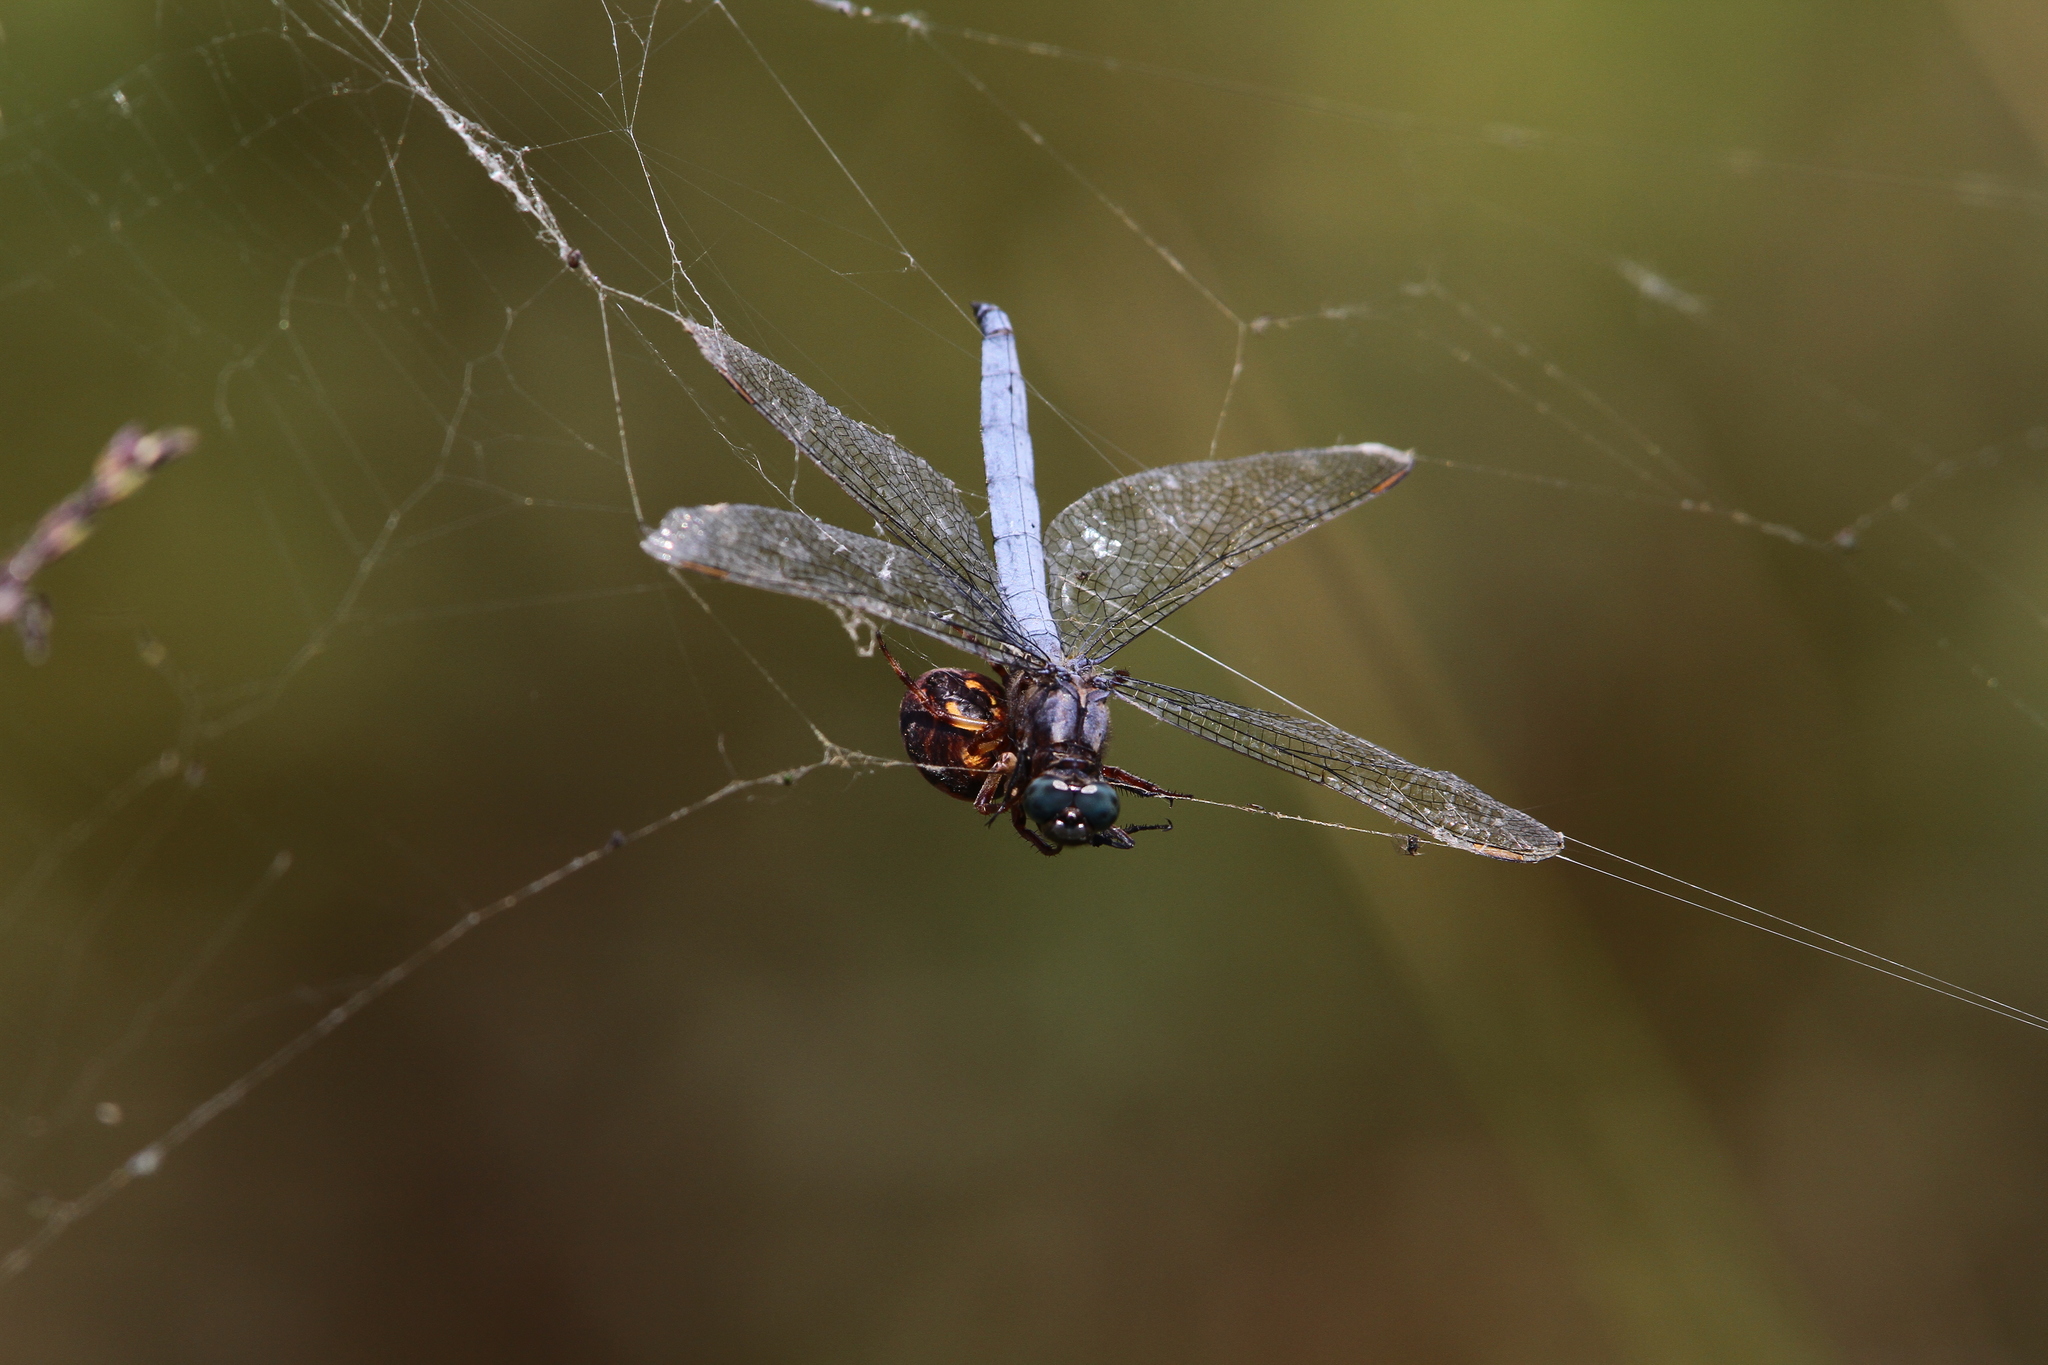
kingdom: Animalia
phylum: Arthropoda
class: Insecta
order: Odonata
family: Libellulidae
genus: Orthetrum
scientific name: Orthetrum coerulescens
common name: Keeled skimmer
